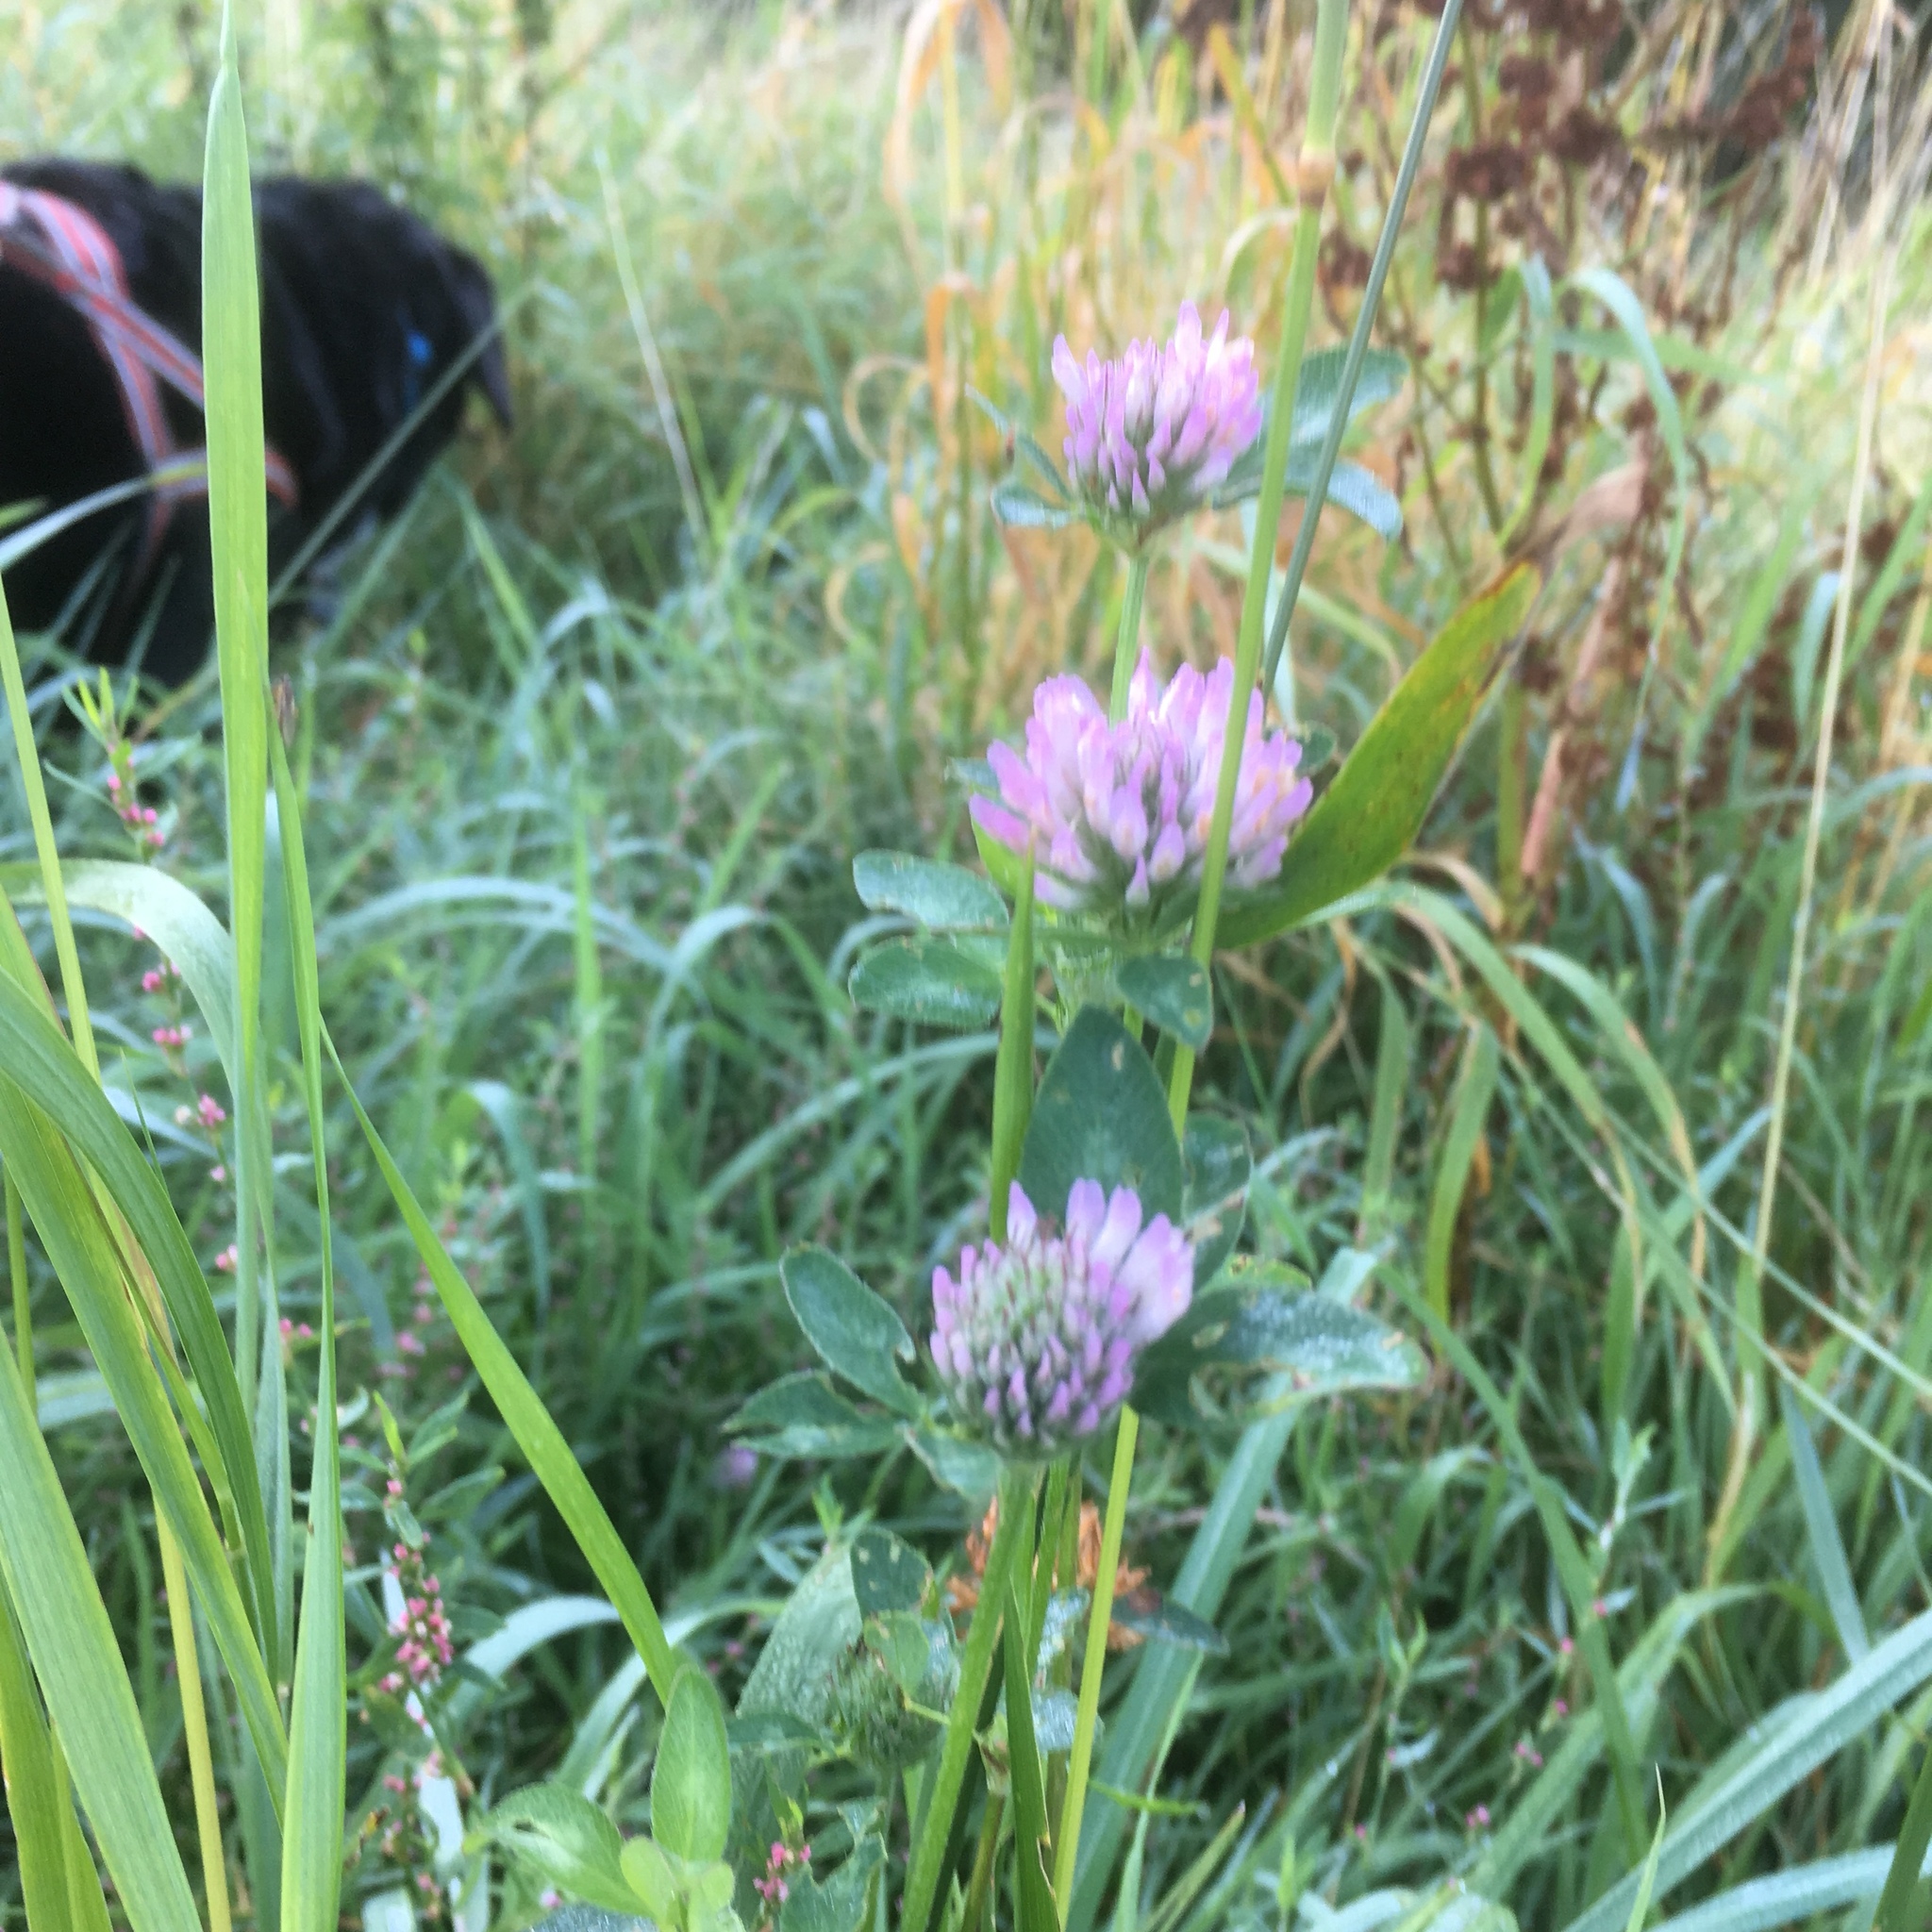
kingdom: Plantae
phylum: Tracheophyta
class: Magnoliopsida
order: Fabales
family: Fabaceae
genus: Trifolium
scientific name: Trifolium pratense
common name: Red clover
